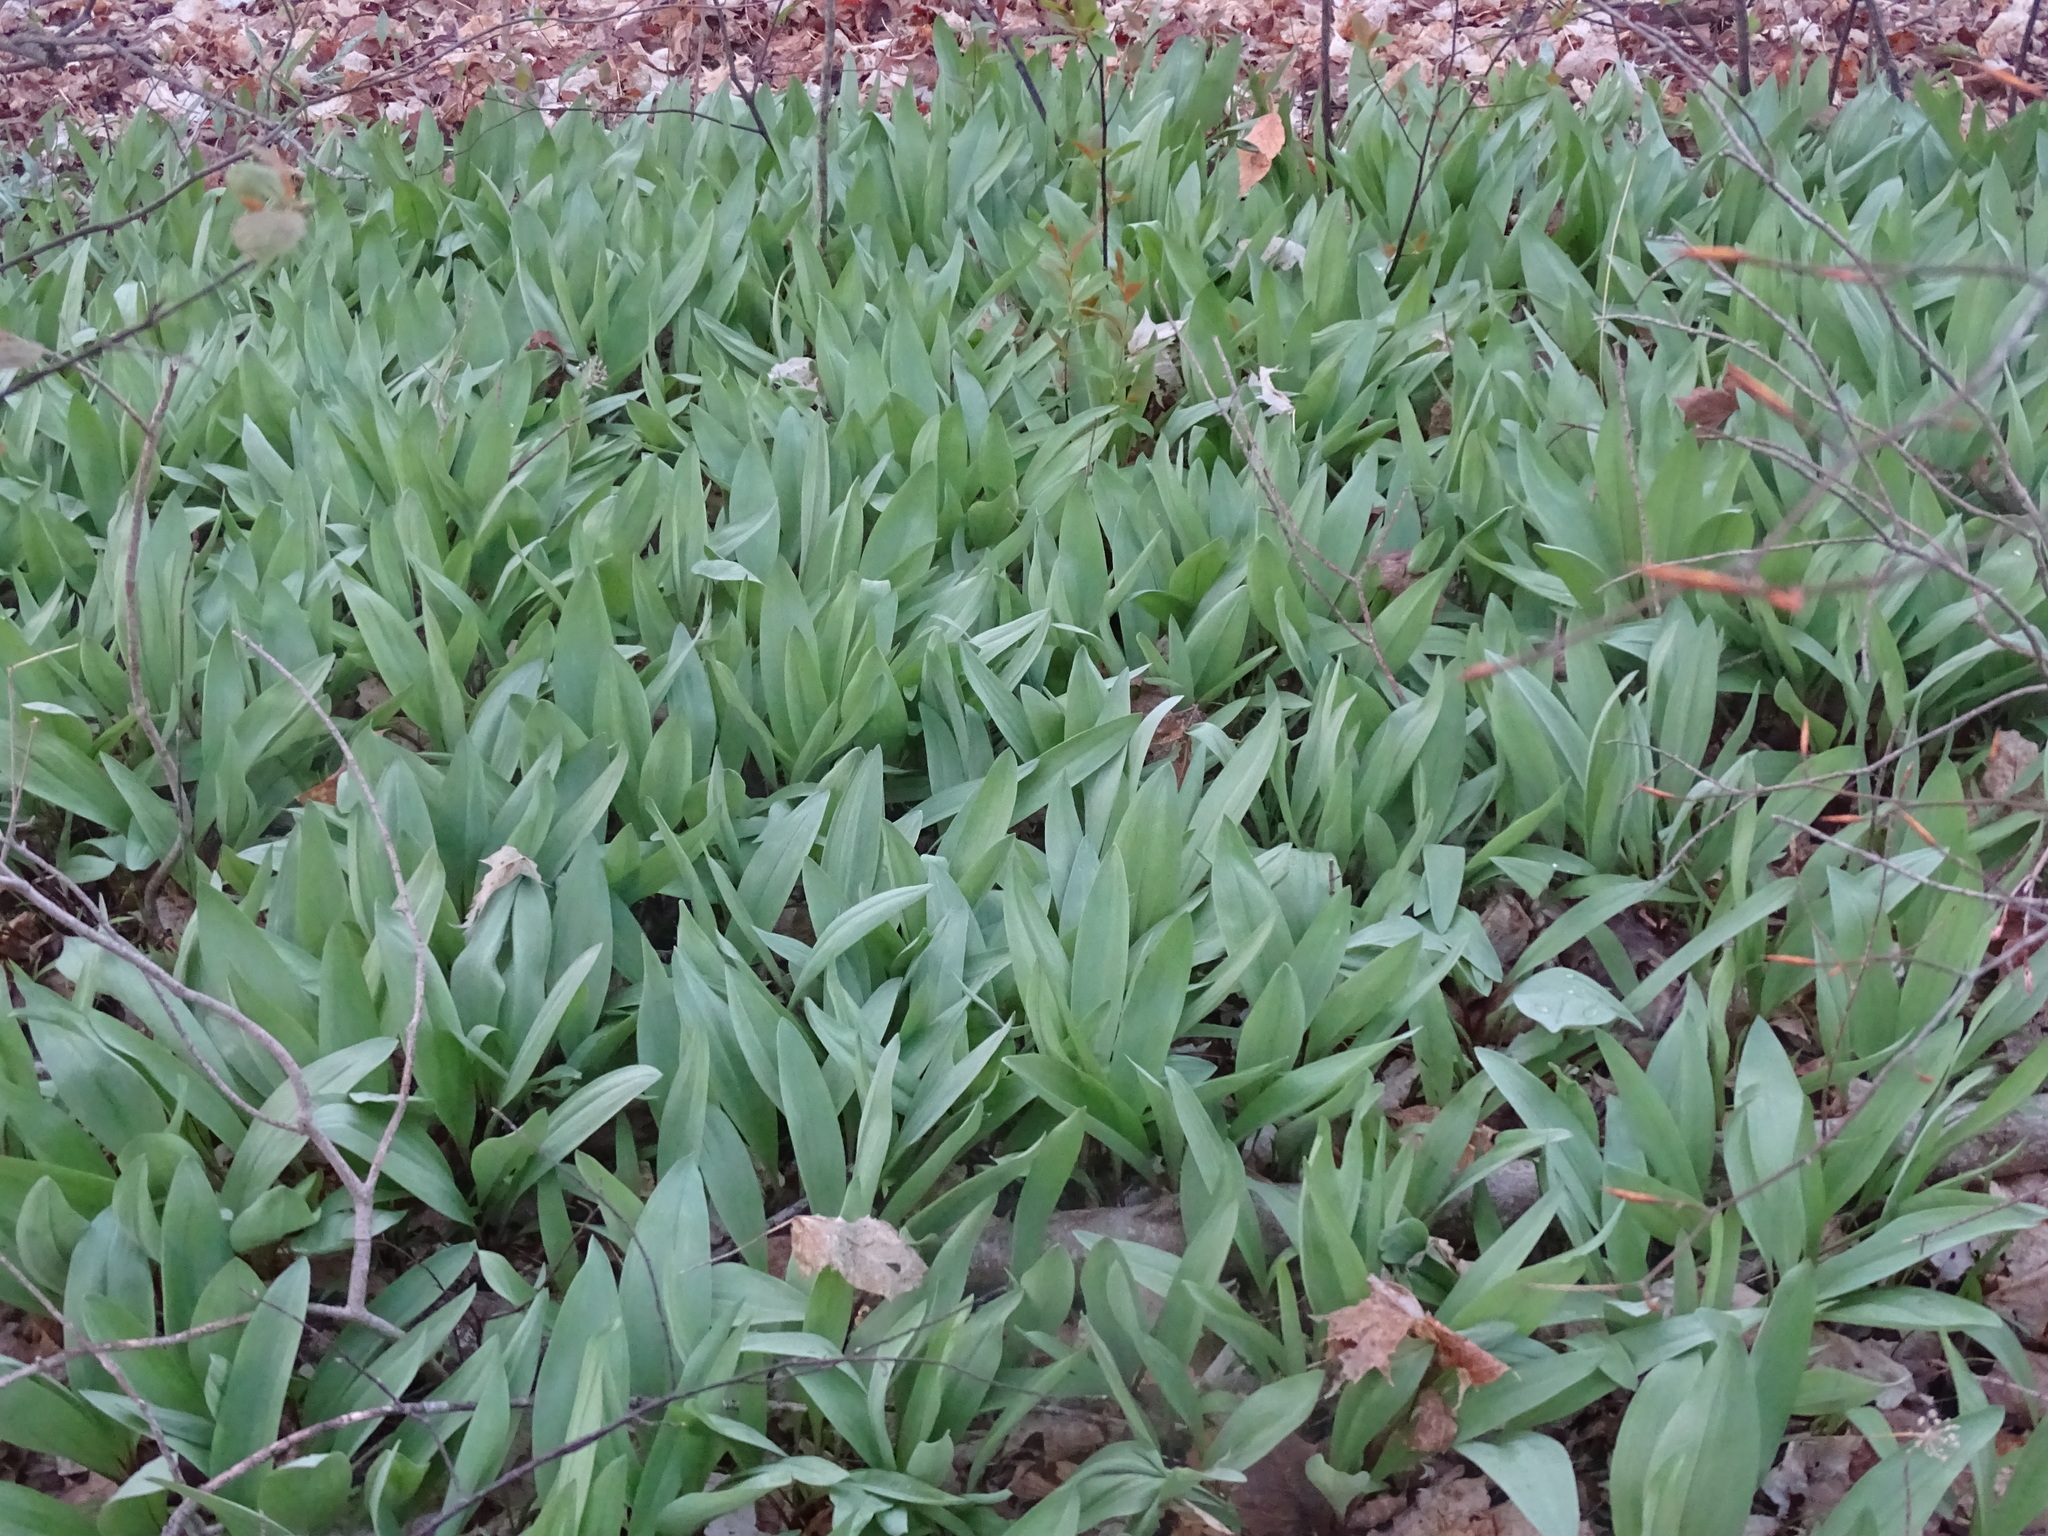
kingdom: Plantae
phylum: Tracheophyta
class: Liliopsida
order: Asparagales
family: Amaryllidaceae
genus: Allium
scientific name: Allium tricoccum
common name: Ramp
